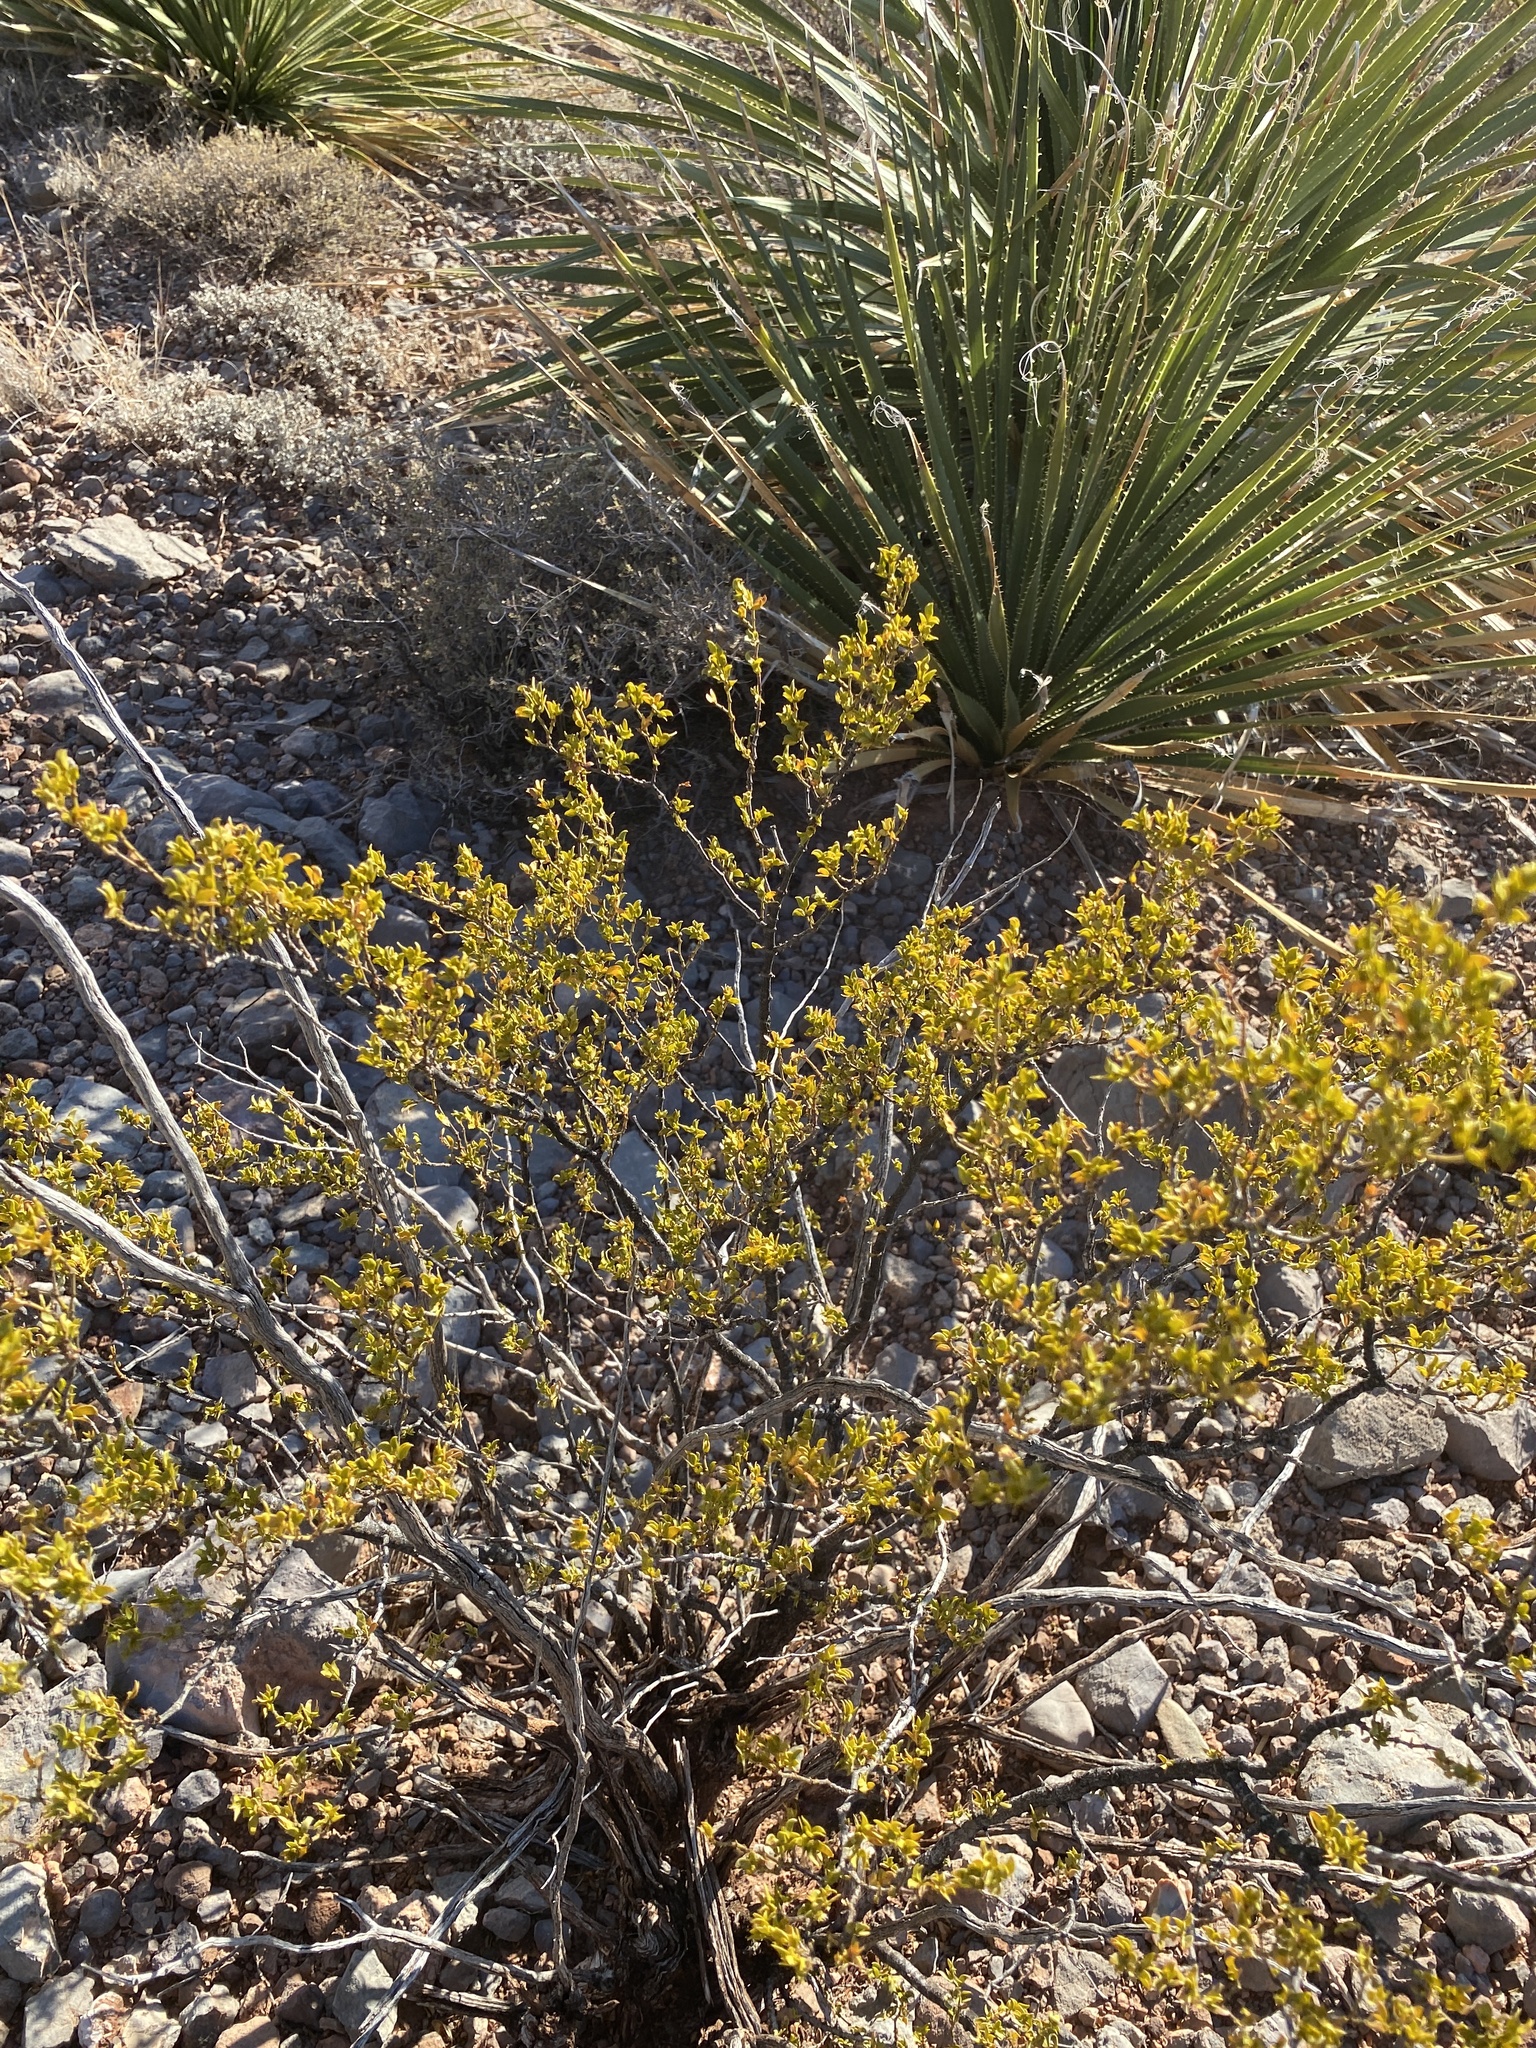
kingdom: Plantae
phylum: Tracheophyta
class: Magnoliopsida
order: Zygophyllales
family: Zygophyllaceae
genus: Larrea
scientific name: Larrea tridentata
